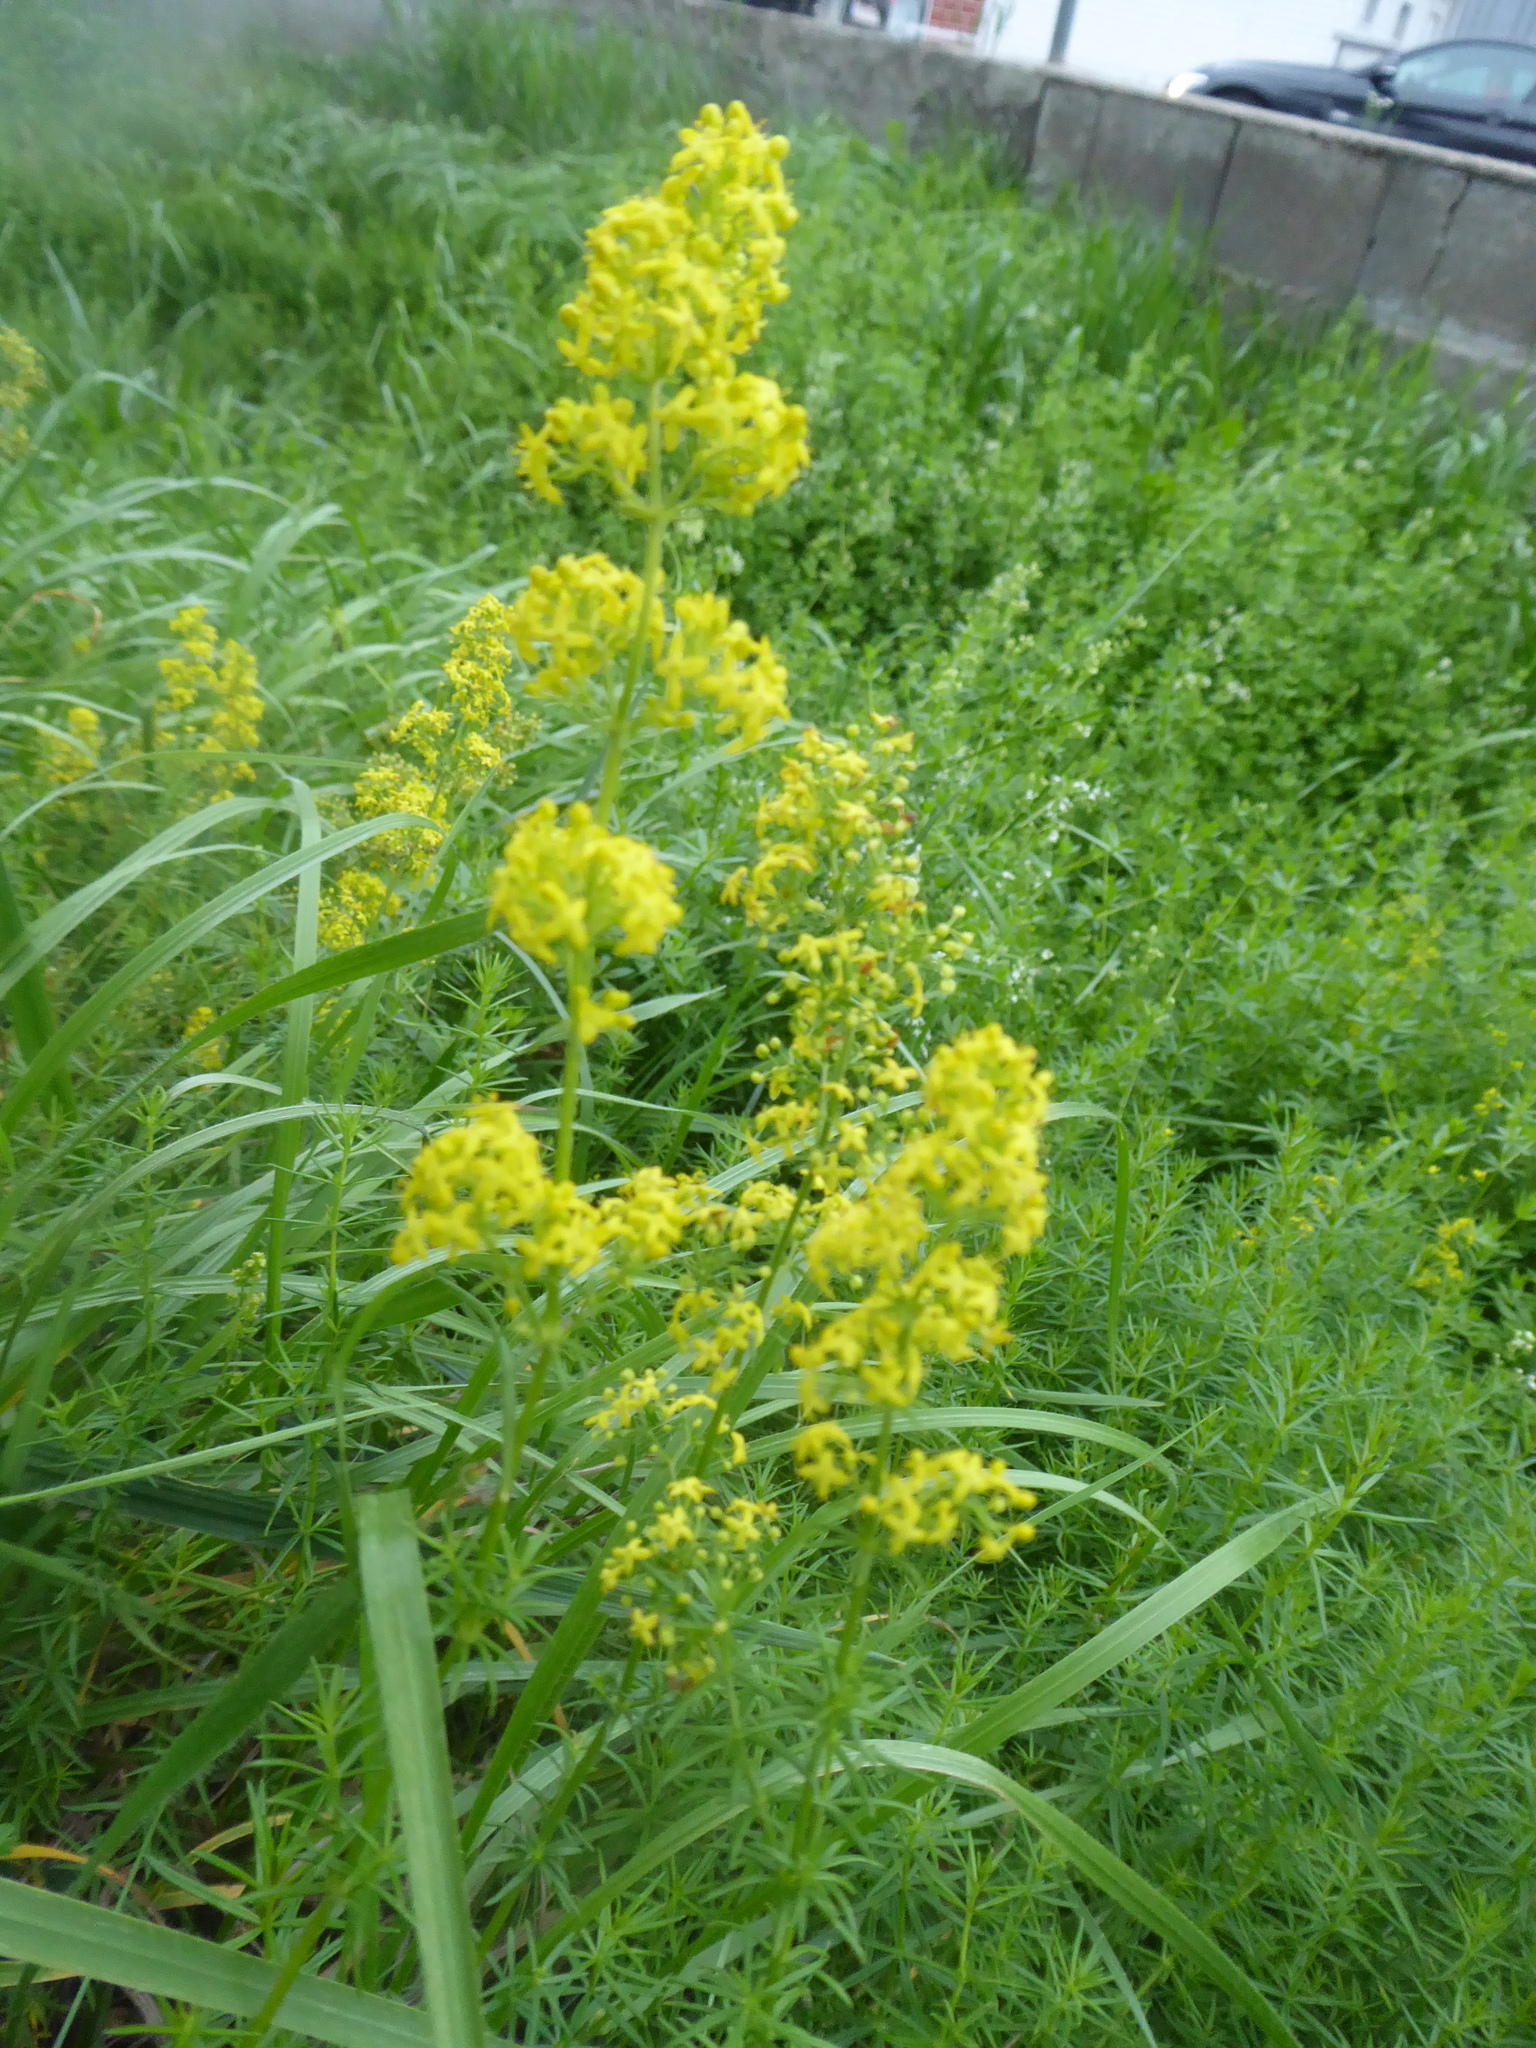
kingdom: Plantae
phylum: Tracheophyta
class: Magnoliopsida
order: Gentianales
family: Rubiaceae
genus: Galium
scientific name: Galium verum
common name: Lady's bedstraw
